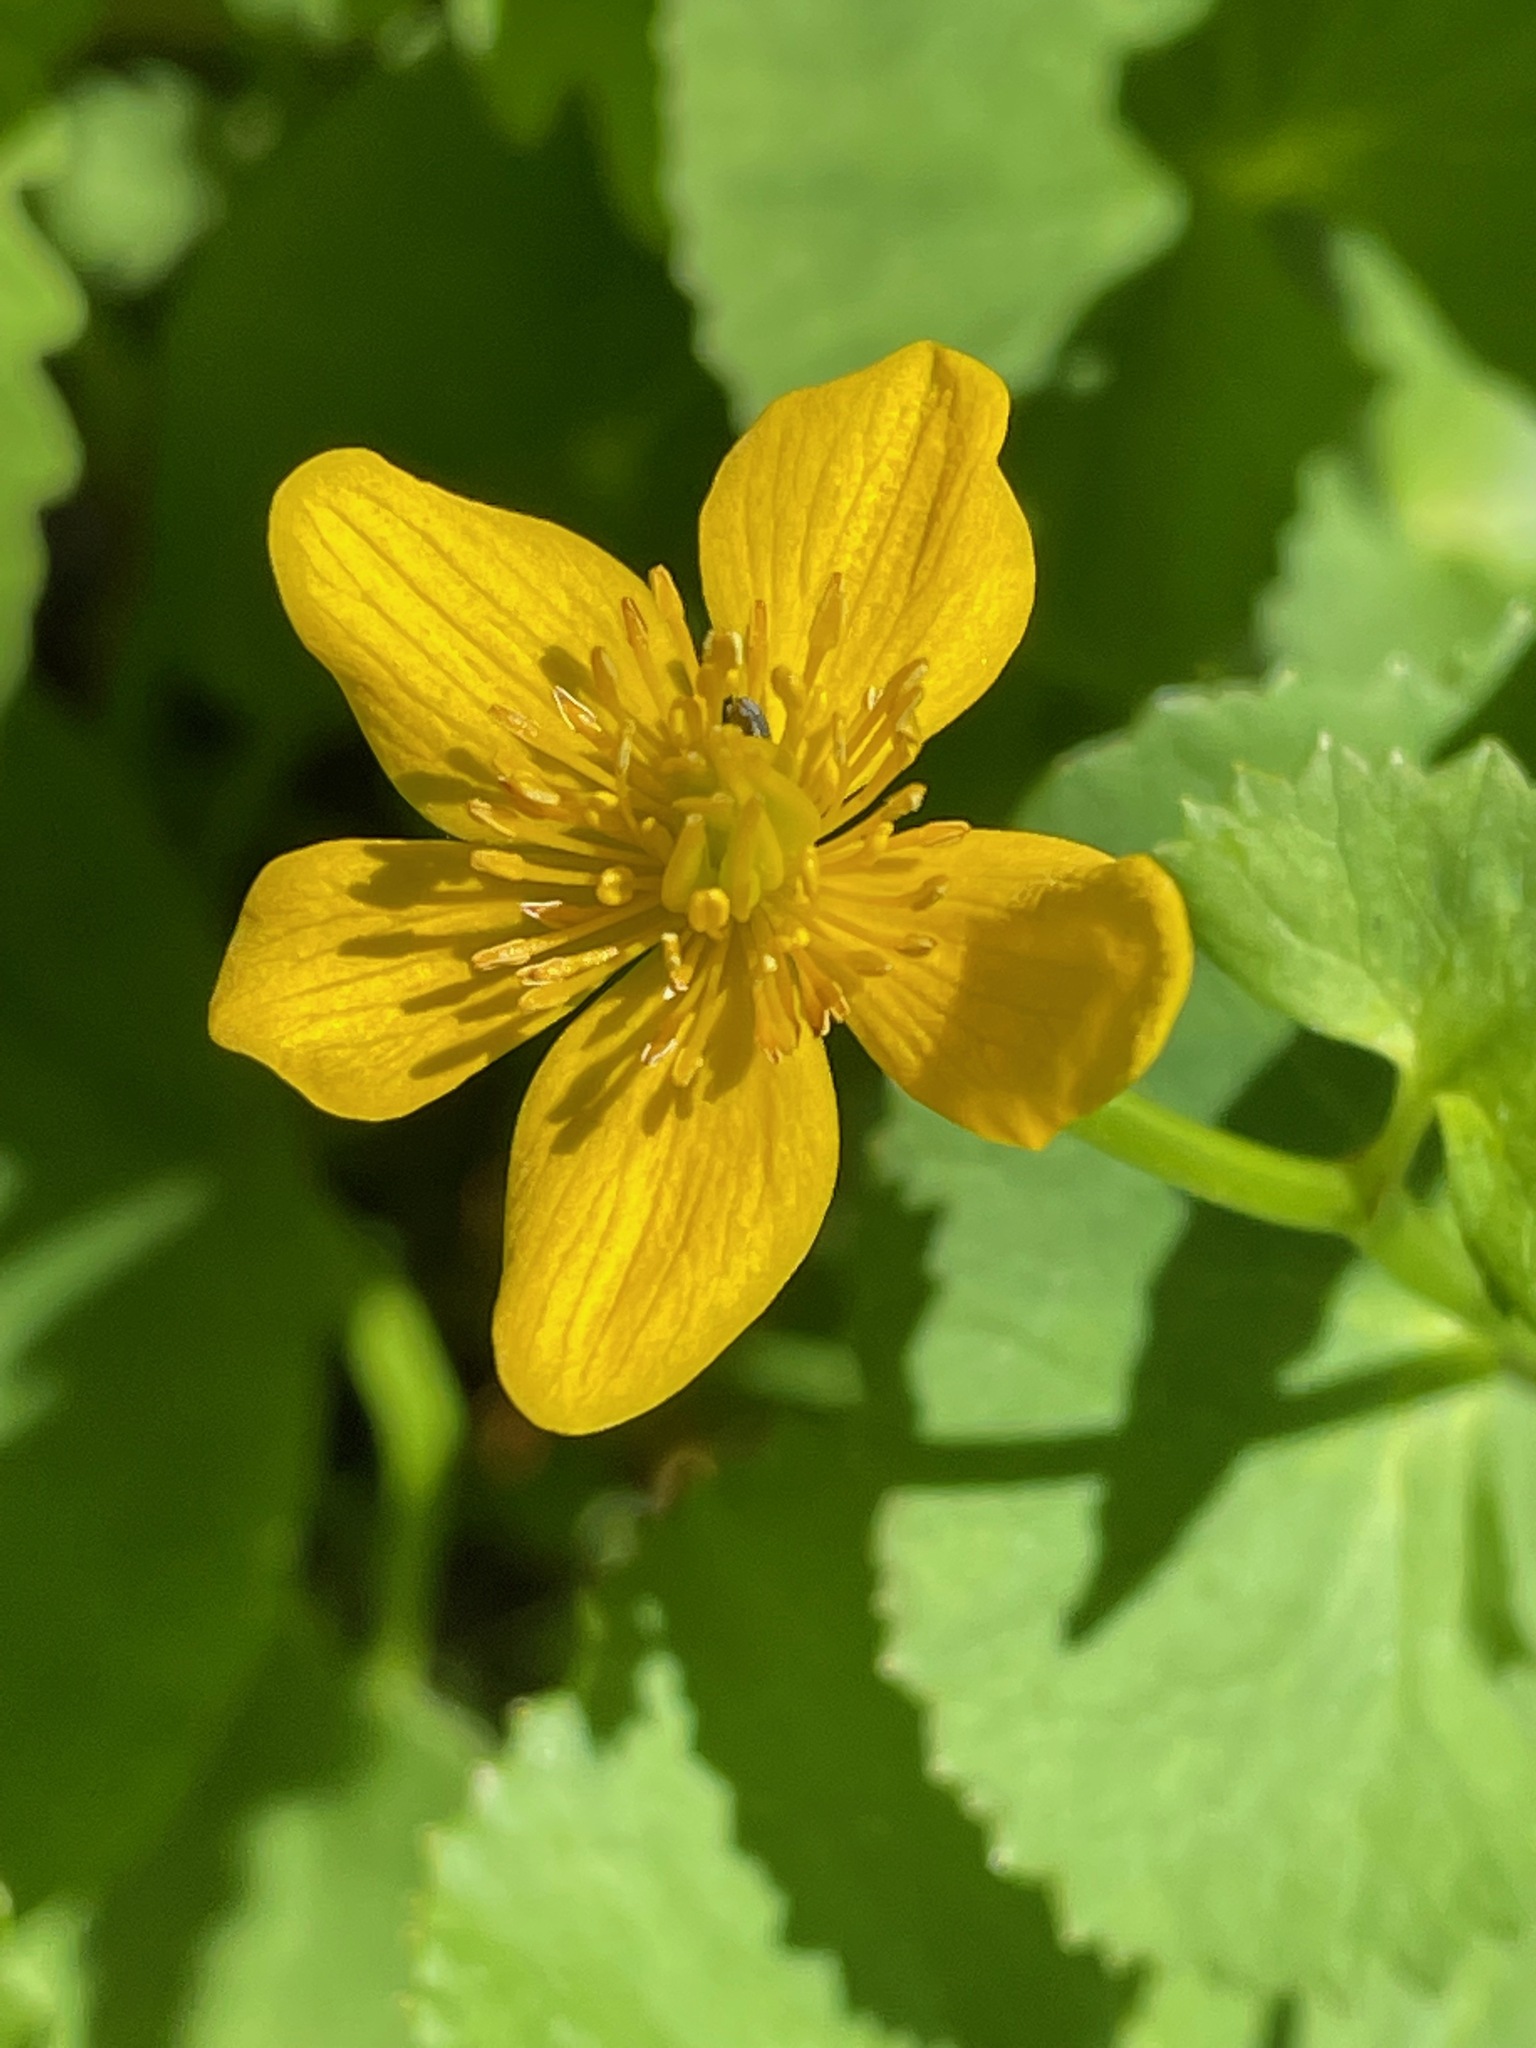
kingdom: Plantae
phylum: Tracheophyta
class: Magnoliopsida
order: Ranunculales
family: Ranunculaceae
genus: Caltha
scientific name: Caltha palustris
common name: Marsh marigold
